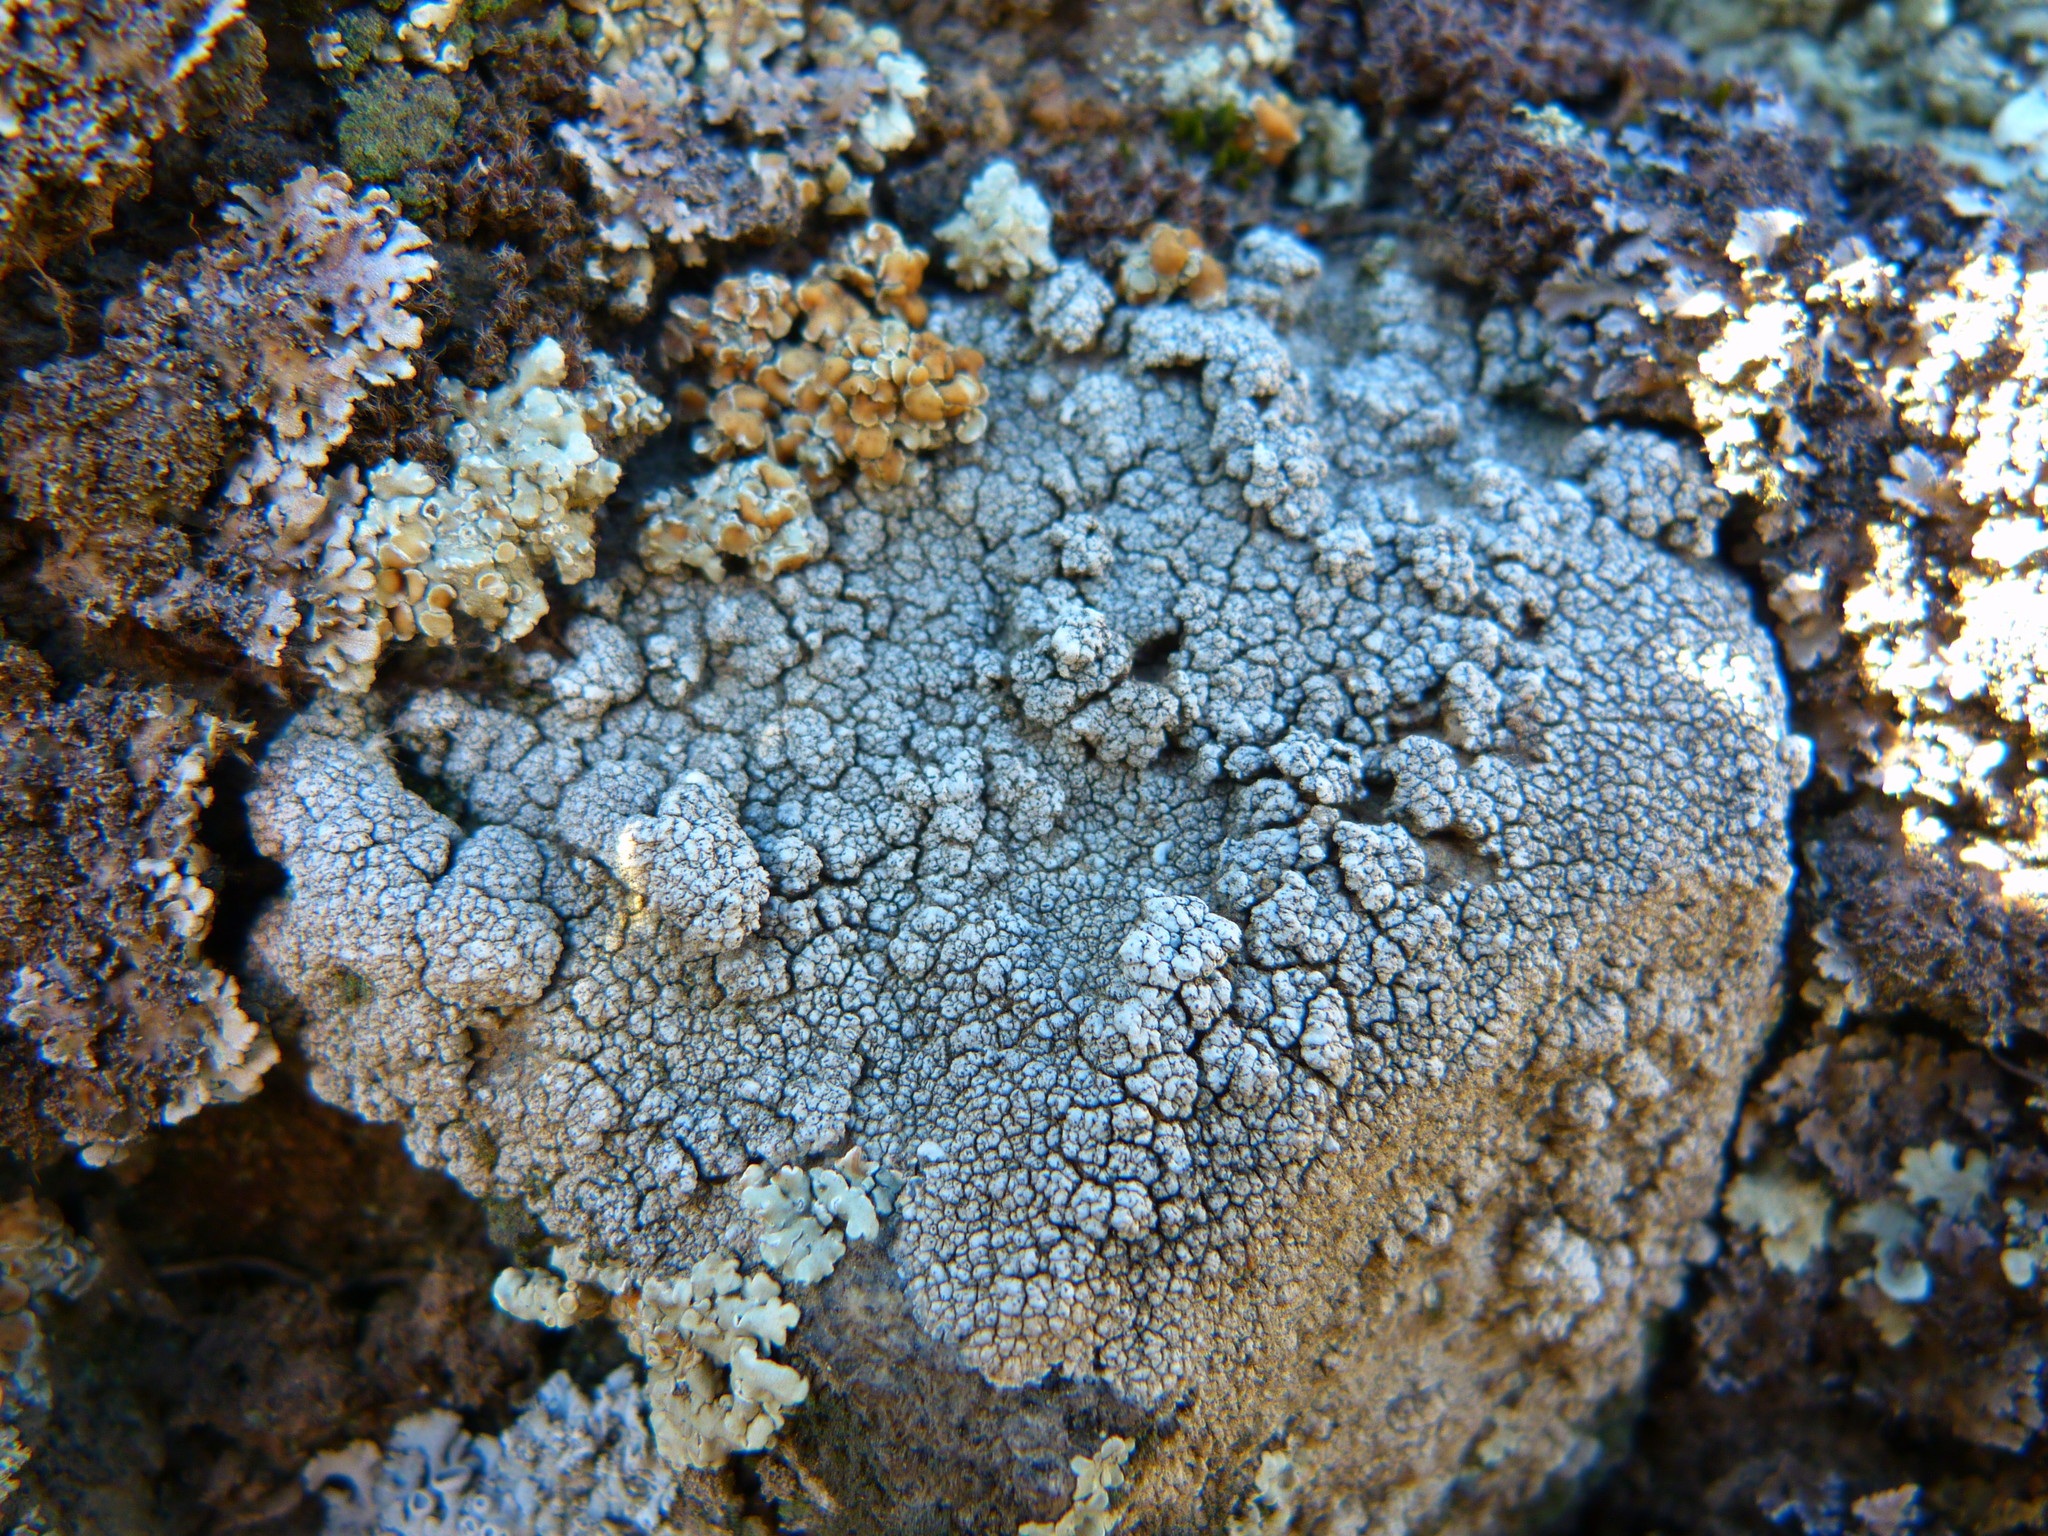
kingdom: Fungi
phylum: Ascomycota
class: Lecanoromycetes
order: Pertusariales
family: Pertusariaceae
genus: Pertusaria
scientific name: Pertusaria californica
